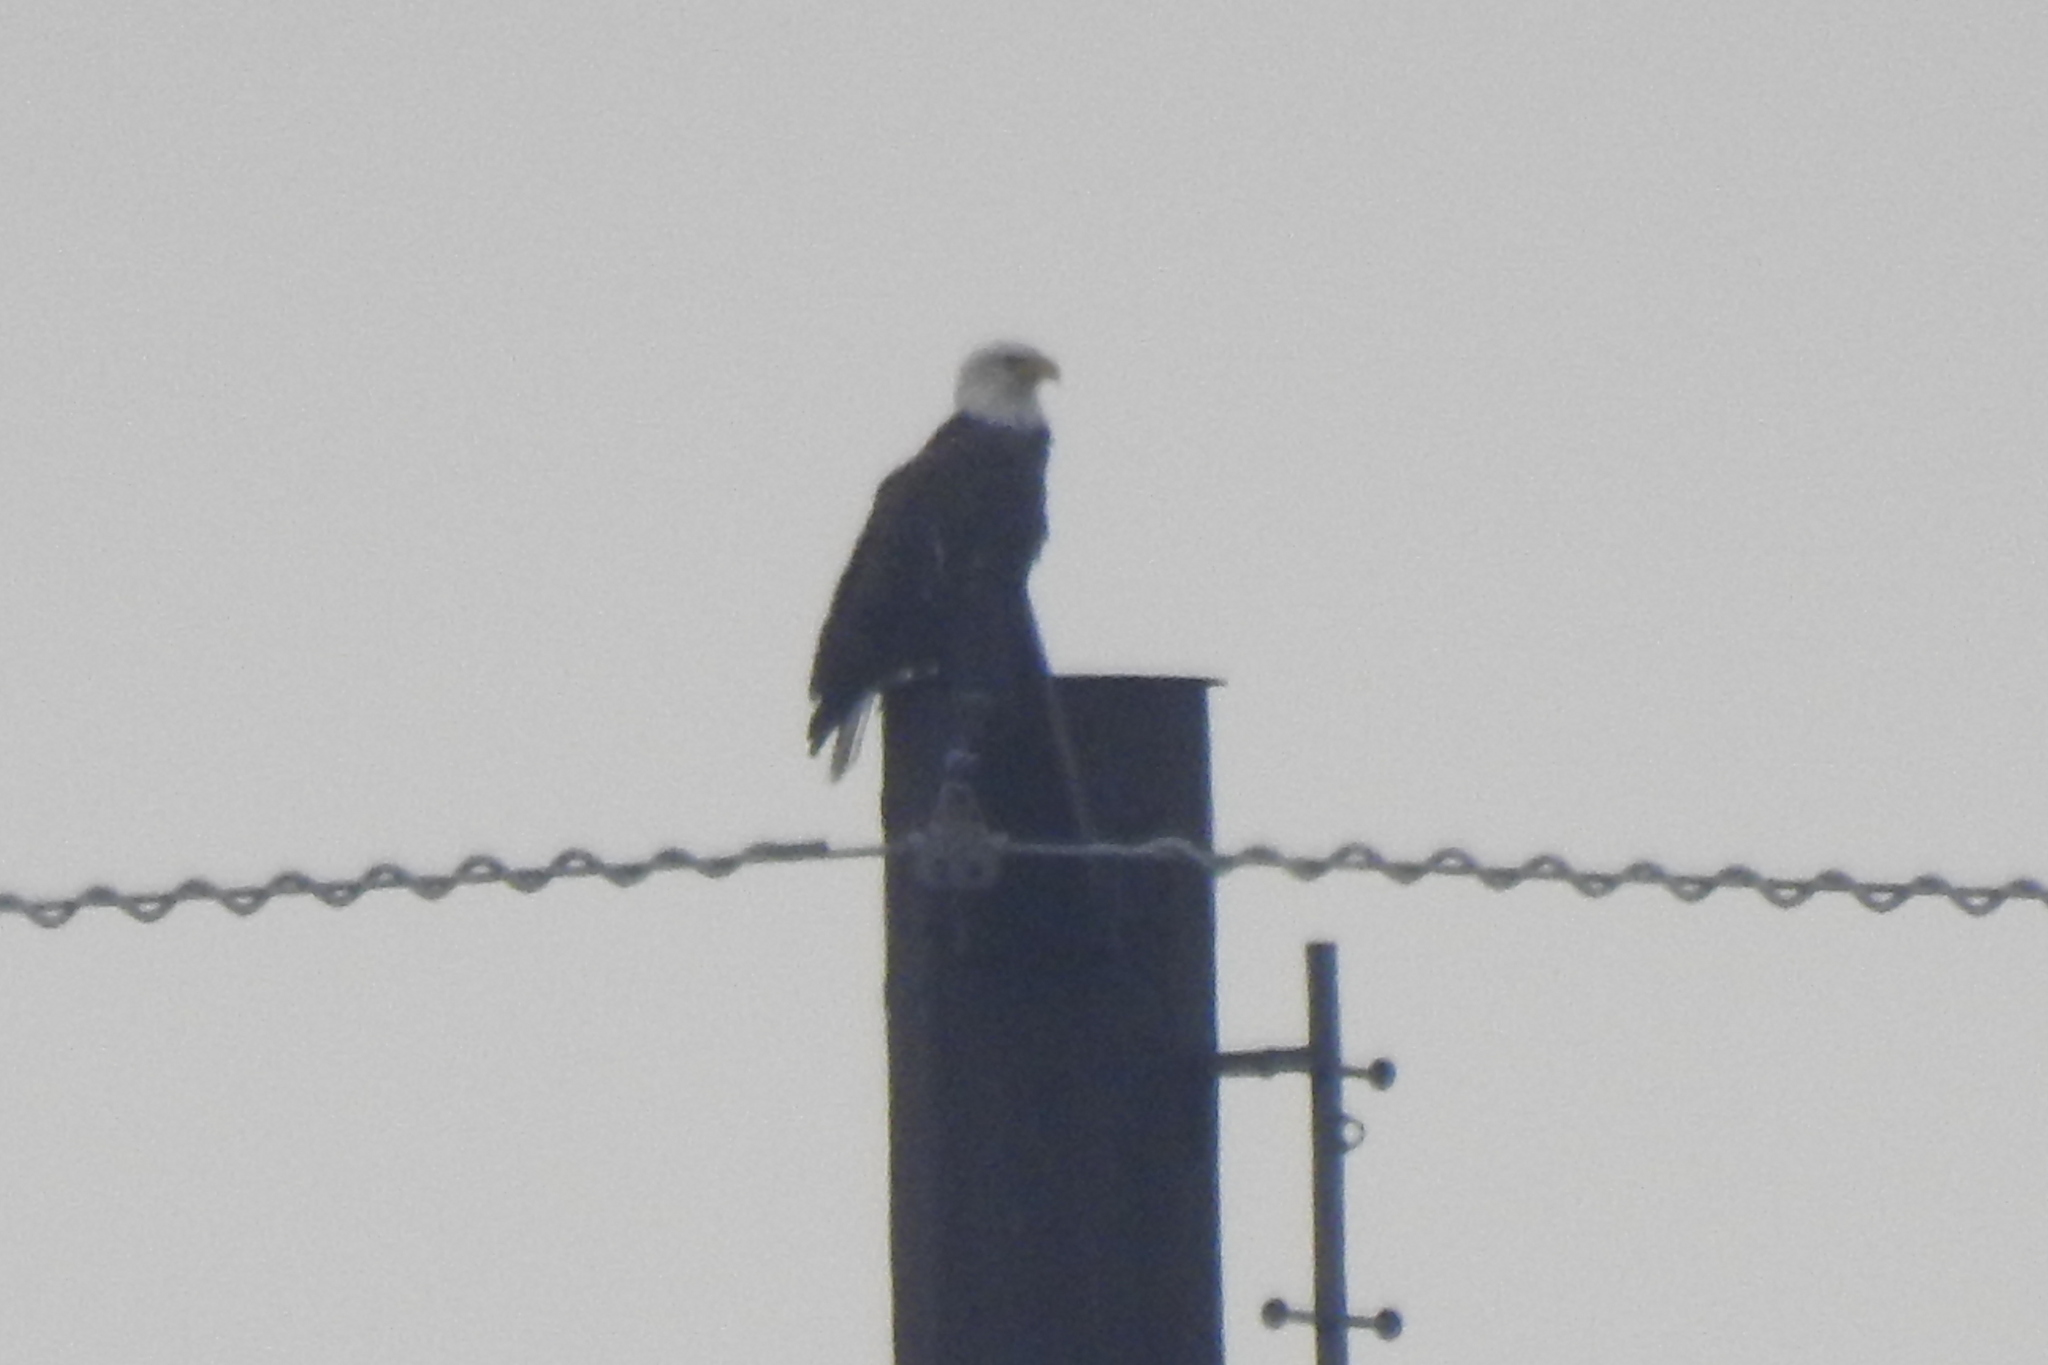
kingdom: Animalia
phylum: Chordata
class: Aves
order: Accipitriformes
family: Accipitridae
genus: Haliaeetus
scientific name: Haliaeetus leucocephalus
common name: Bald eagle
